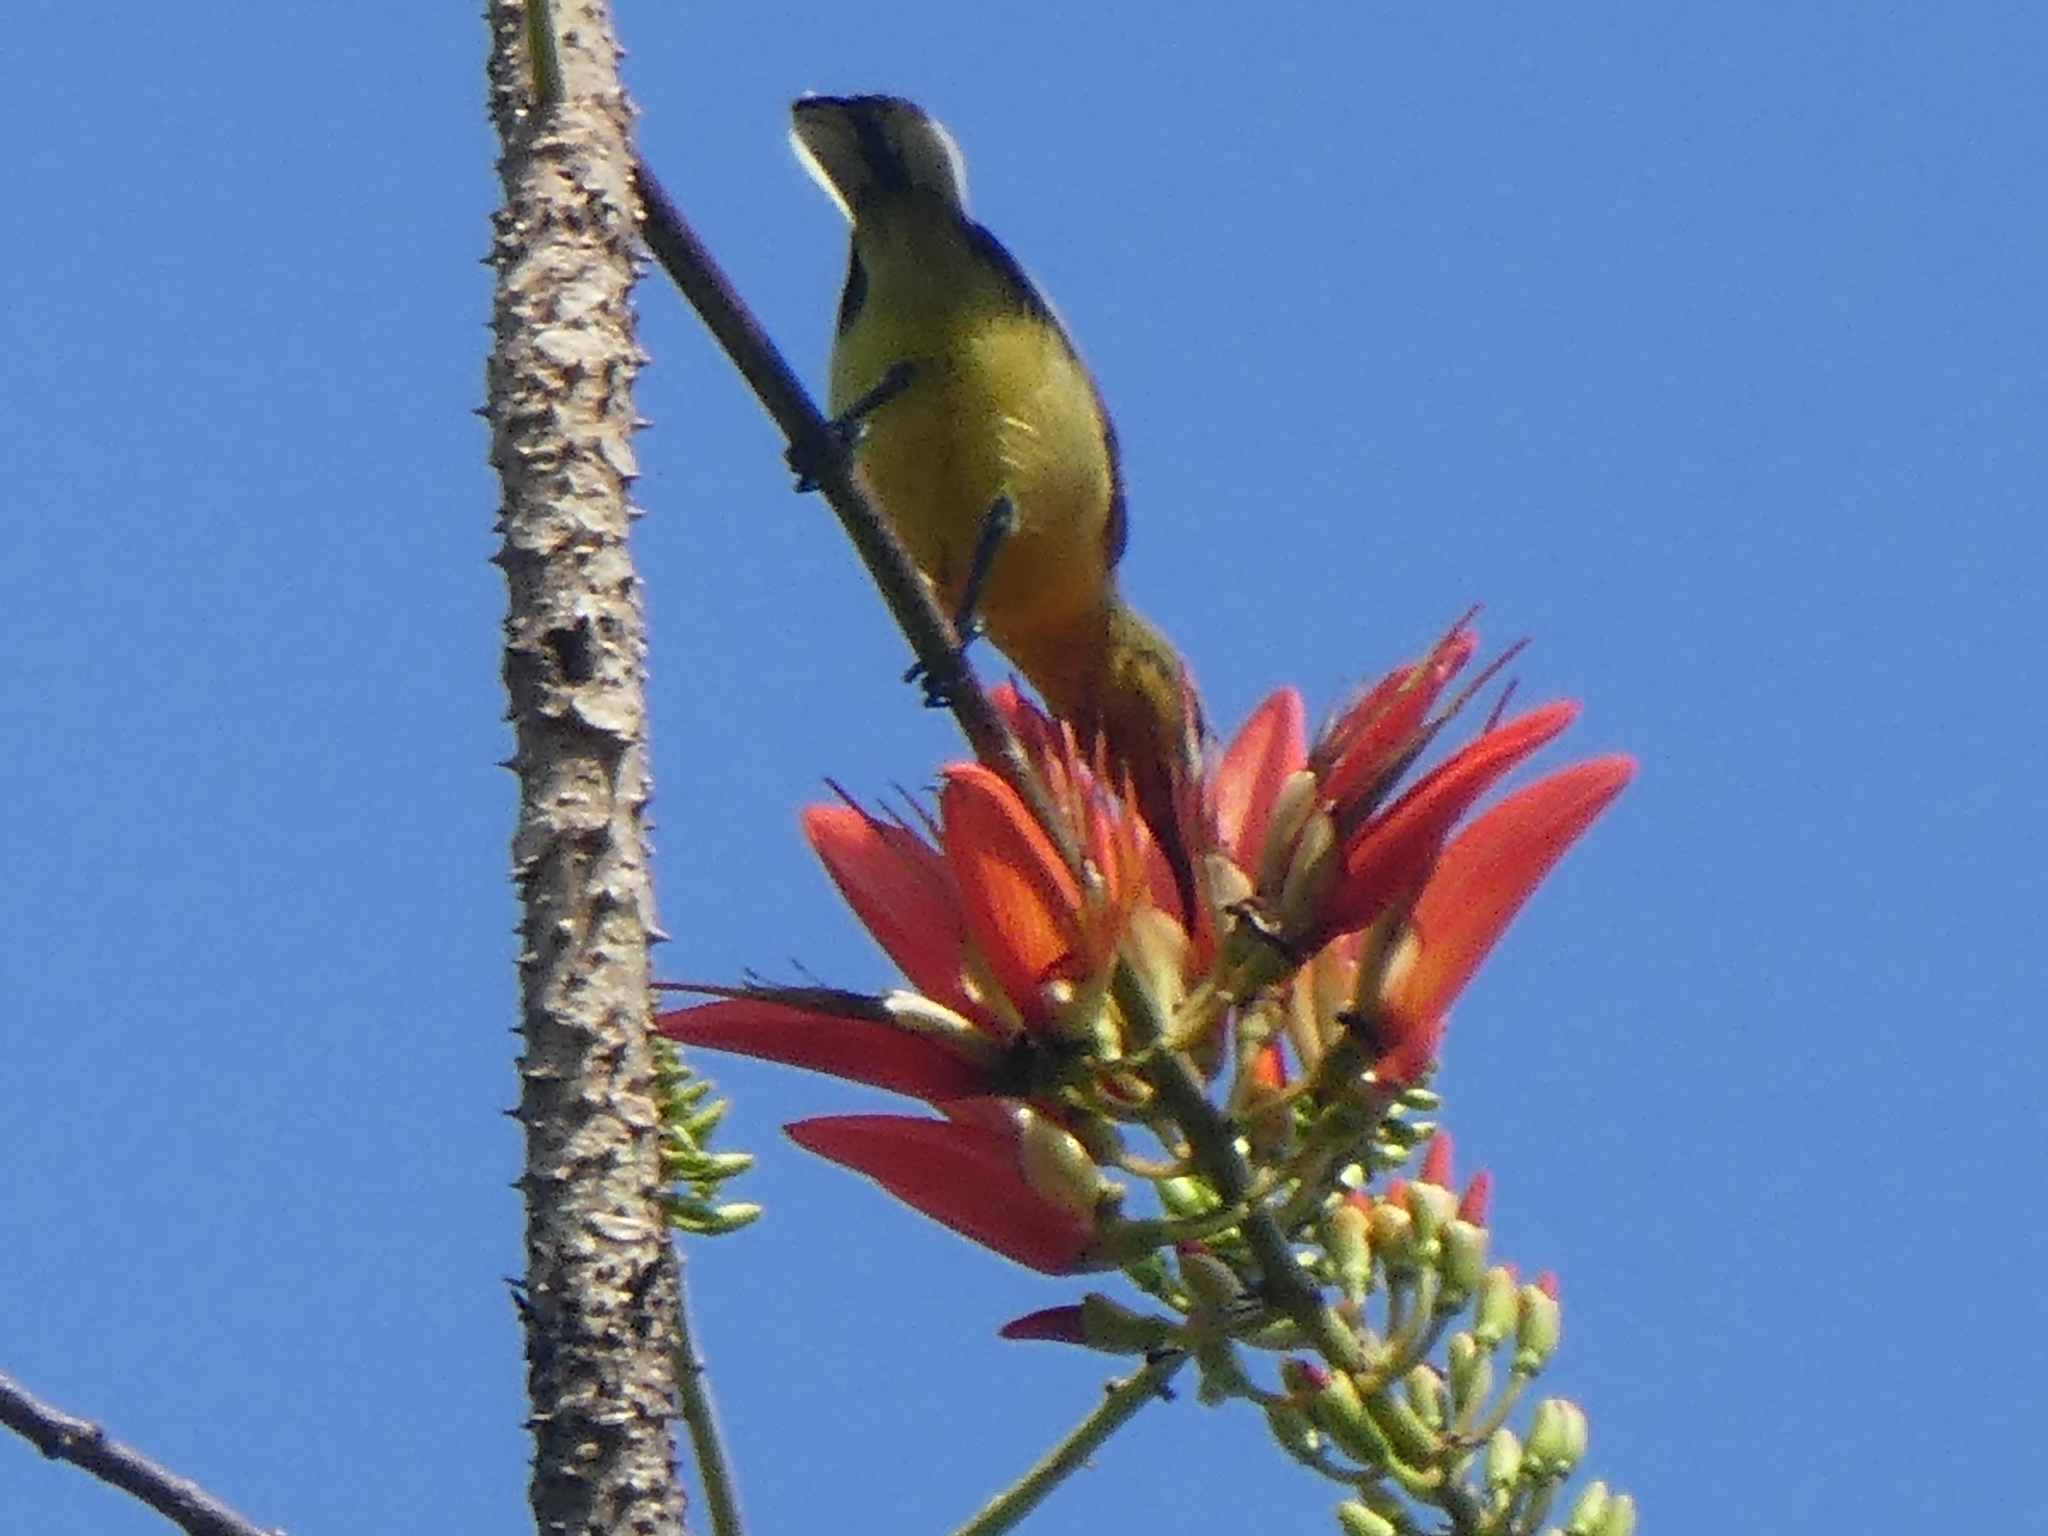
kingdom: Animalia
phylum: Chordata
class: Aves
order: Passeriformes
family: Nectariniidae
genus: Cinnyris
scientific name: Cinnyris
